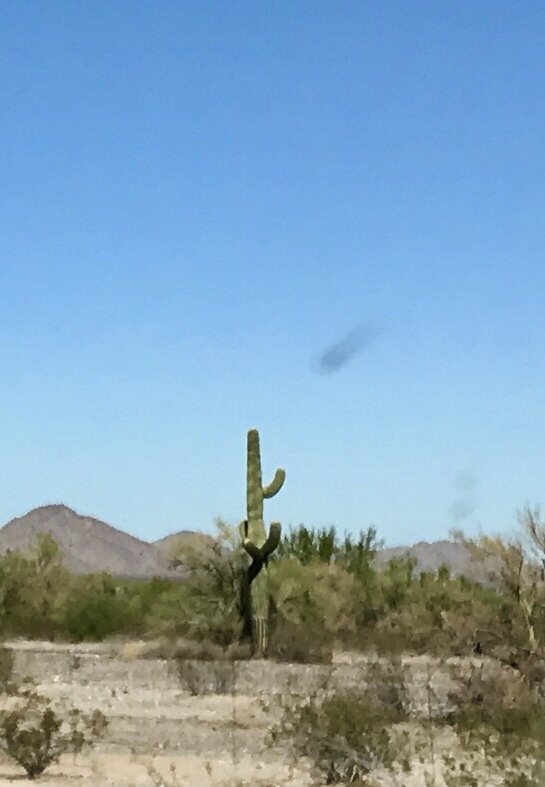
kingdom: Plantae
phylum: Tracheophyta
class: Magnoliopsida
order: Caryophyllales
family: Cactaceae
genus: Carnegiea
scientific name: Carnegiea gigantea
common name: Saguaro
